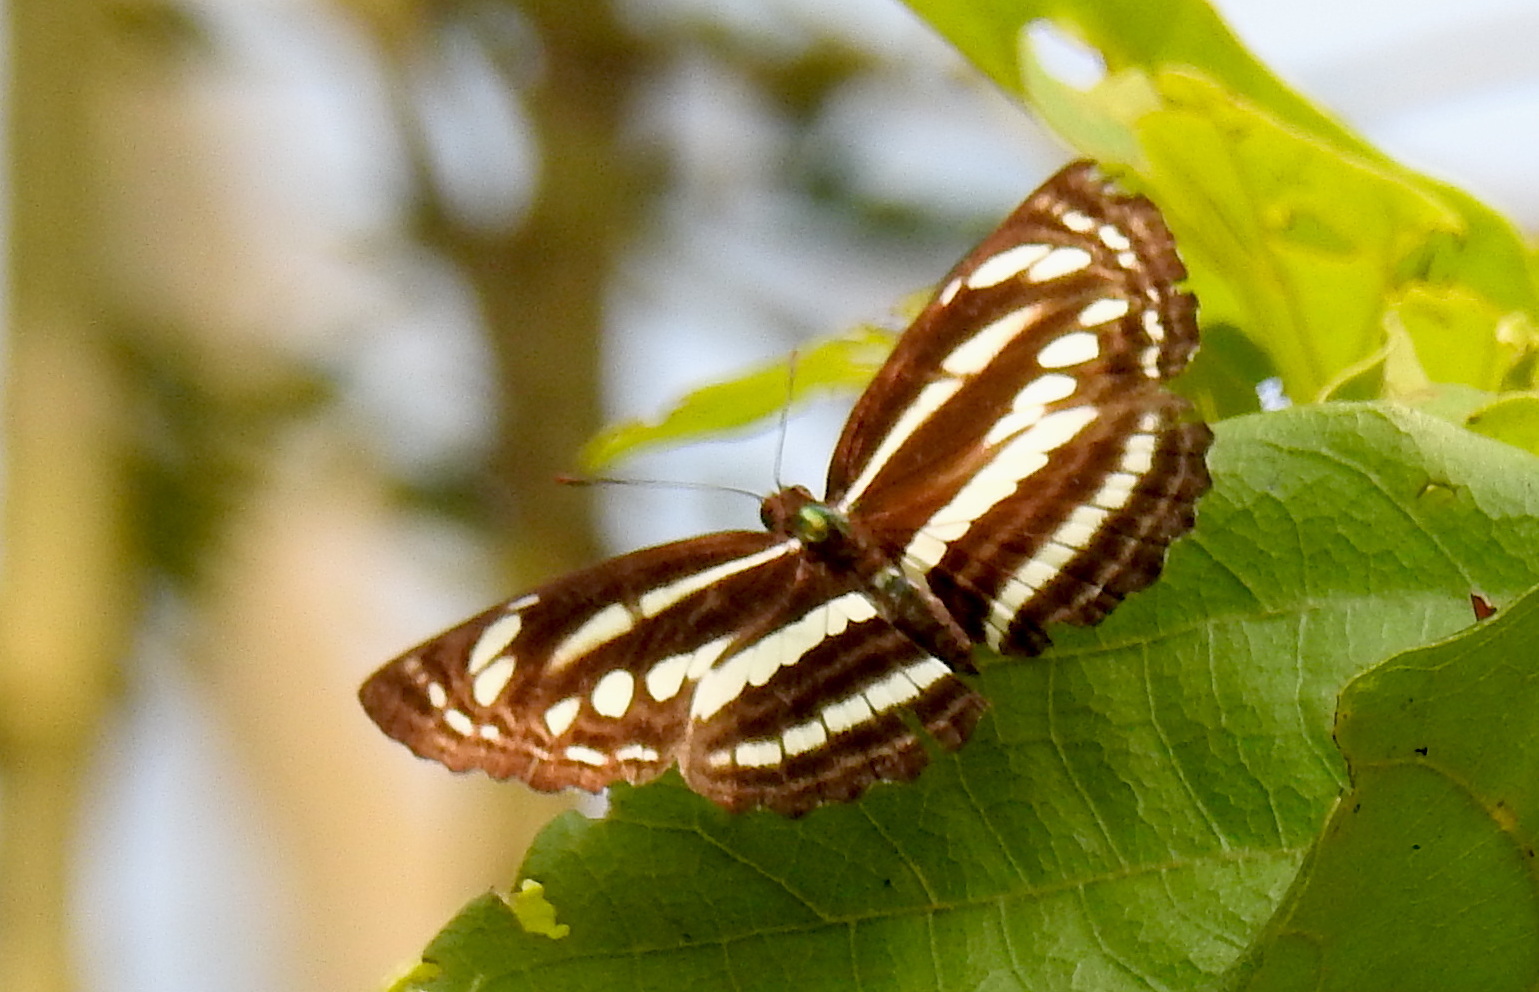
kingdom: Animalia
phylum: Arthropoda
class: Insecta
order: Lepidoptera
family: Nymphalidae
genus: Neptis
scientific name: Neptis clinia
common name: Southern sullied sailer
